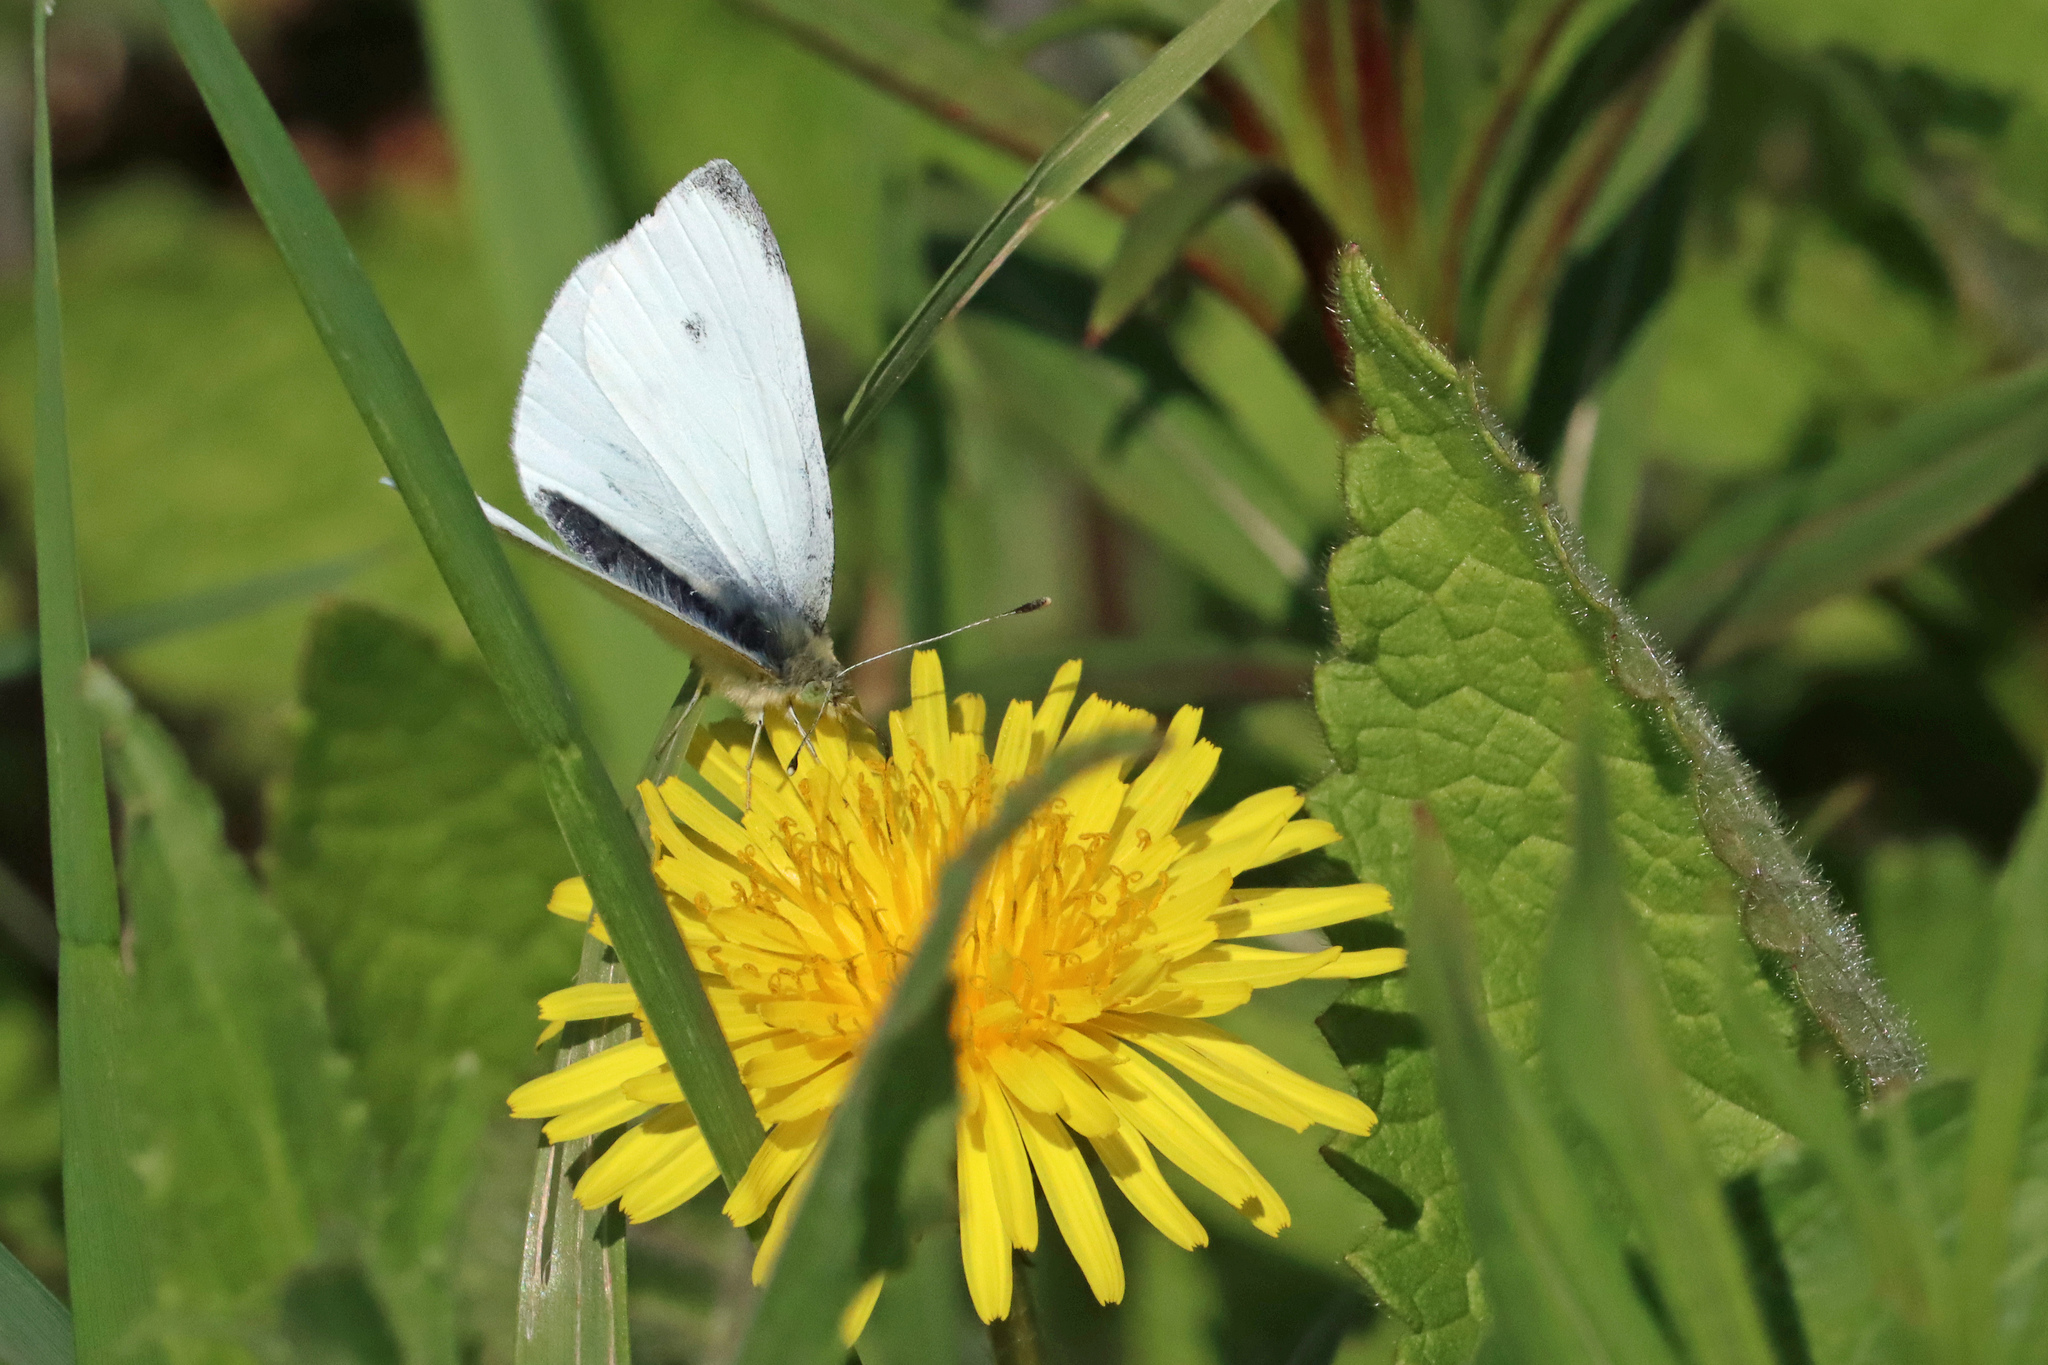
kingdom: Animalia
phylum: Arthropoda
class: Insecta
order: Lepidoptera
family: Pieridae
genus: Pieris
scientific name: Pieris rapae
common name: Small white
